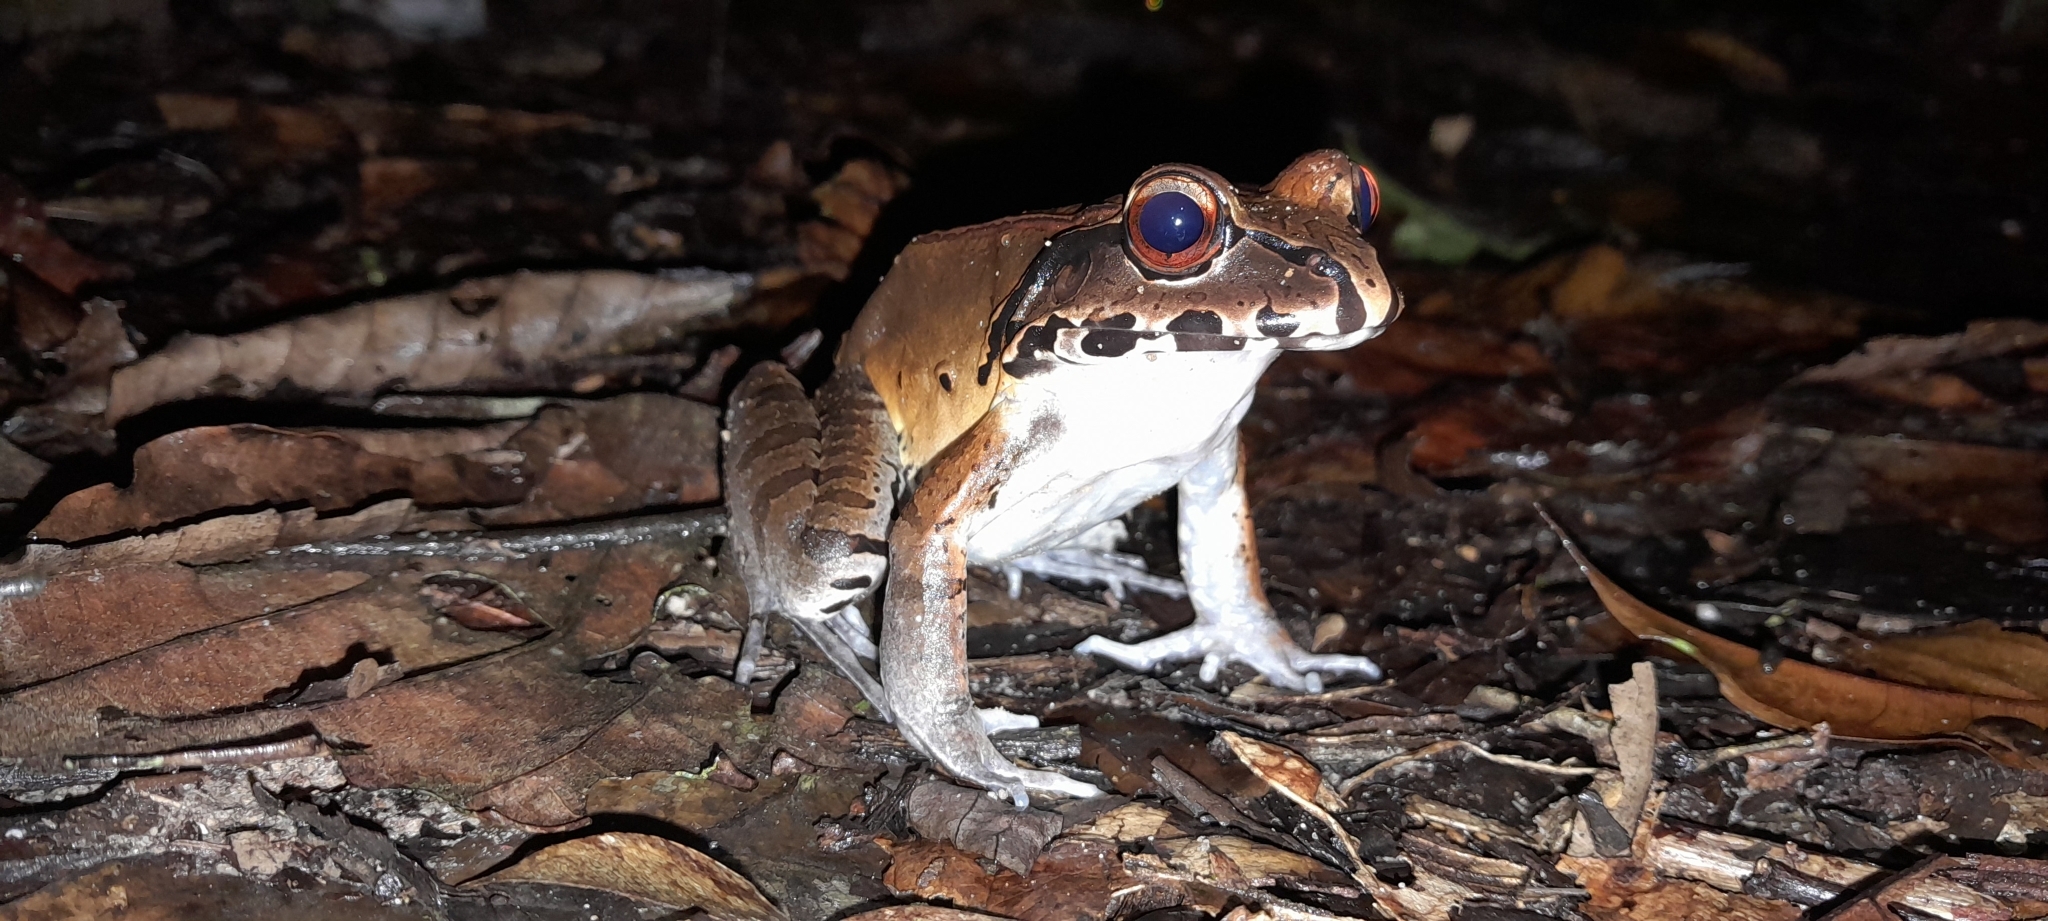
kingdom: Animalia
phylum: Chordata
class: Amphibia
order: Anura
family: Leptodactylidae
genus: Leptodactylus
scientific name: Leptodactylus pentadactylus
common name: Smoky jungle frog
